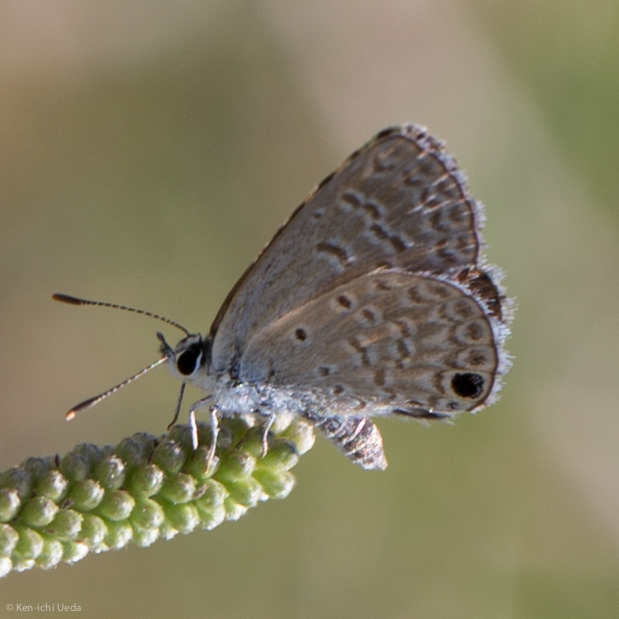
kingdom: Animalia
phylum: Arthropoda
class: Insecta
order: Lepidoptera
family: Lycaenidae
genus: Hemiargus
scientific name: Hemiargus ceraunus
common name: Ceraunus blue
